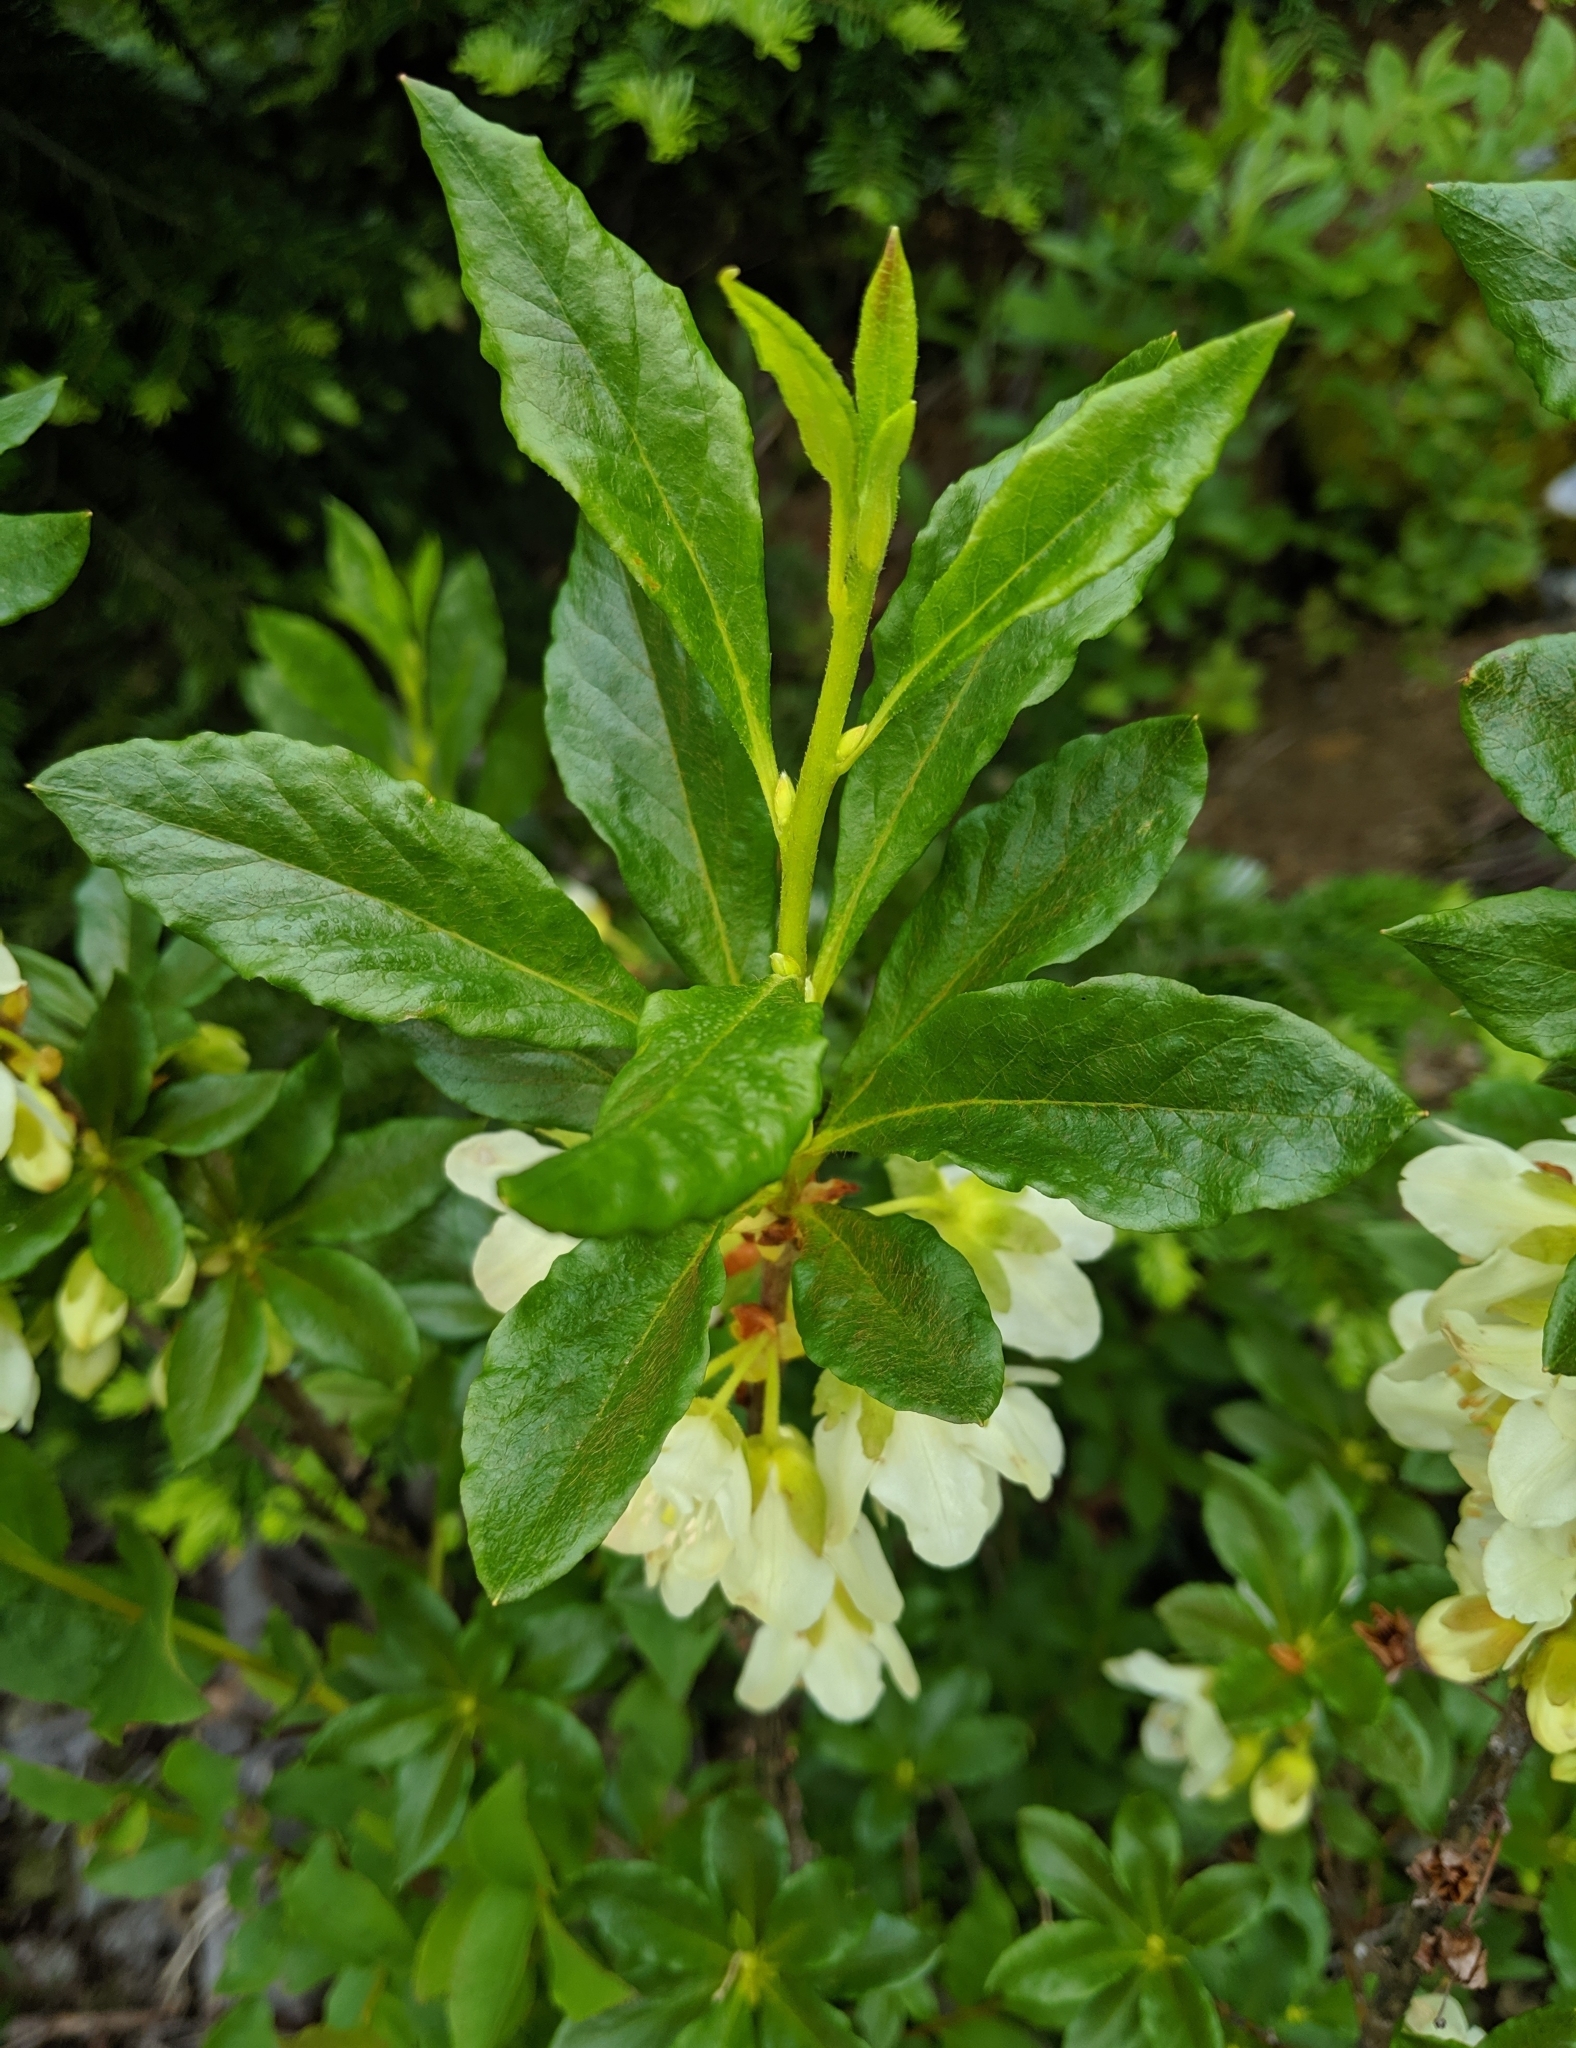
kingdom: Plantae
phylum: Tracheophyta
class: Magnoliopsida
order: Ericales
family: Ericaceae
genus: Rhododendron
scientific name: Rhododendron albiflorum
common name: White rhododendron
